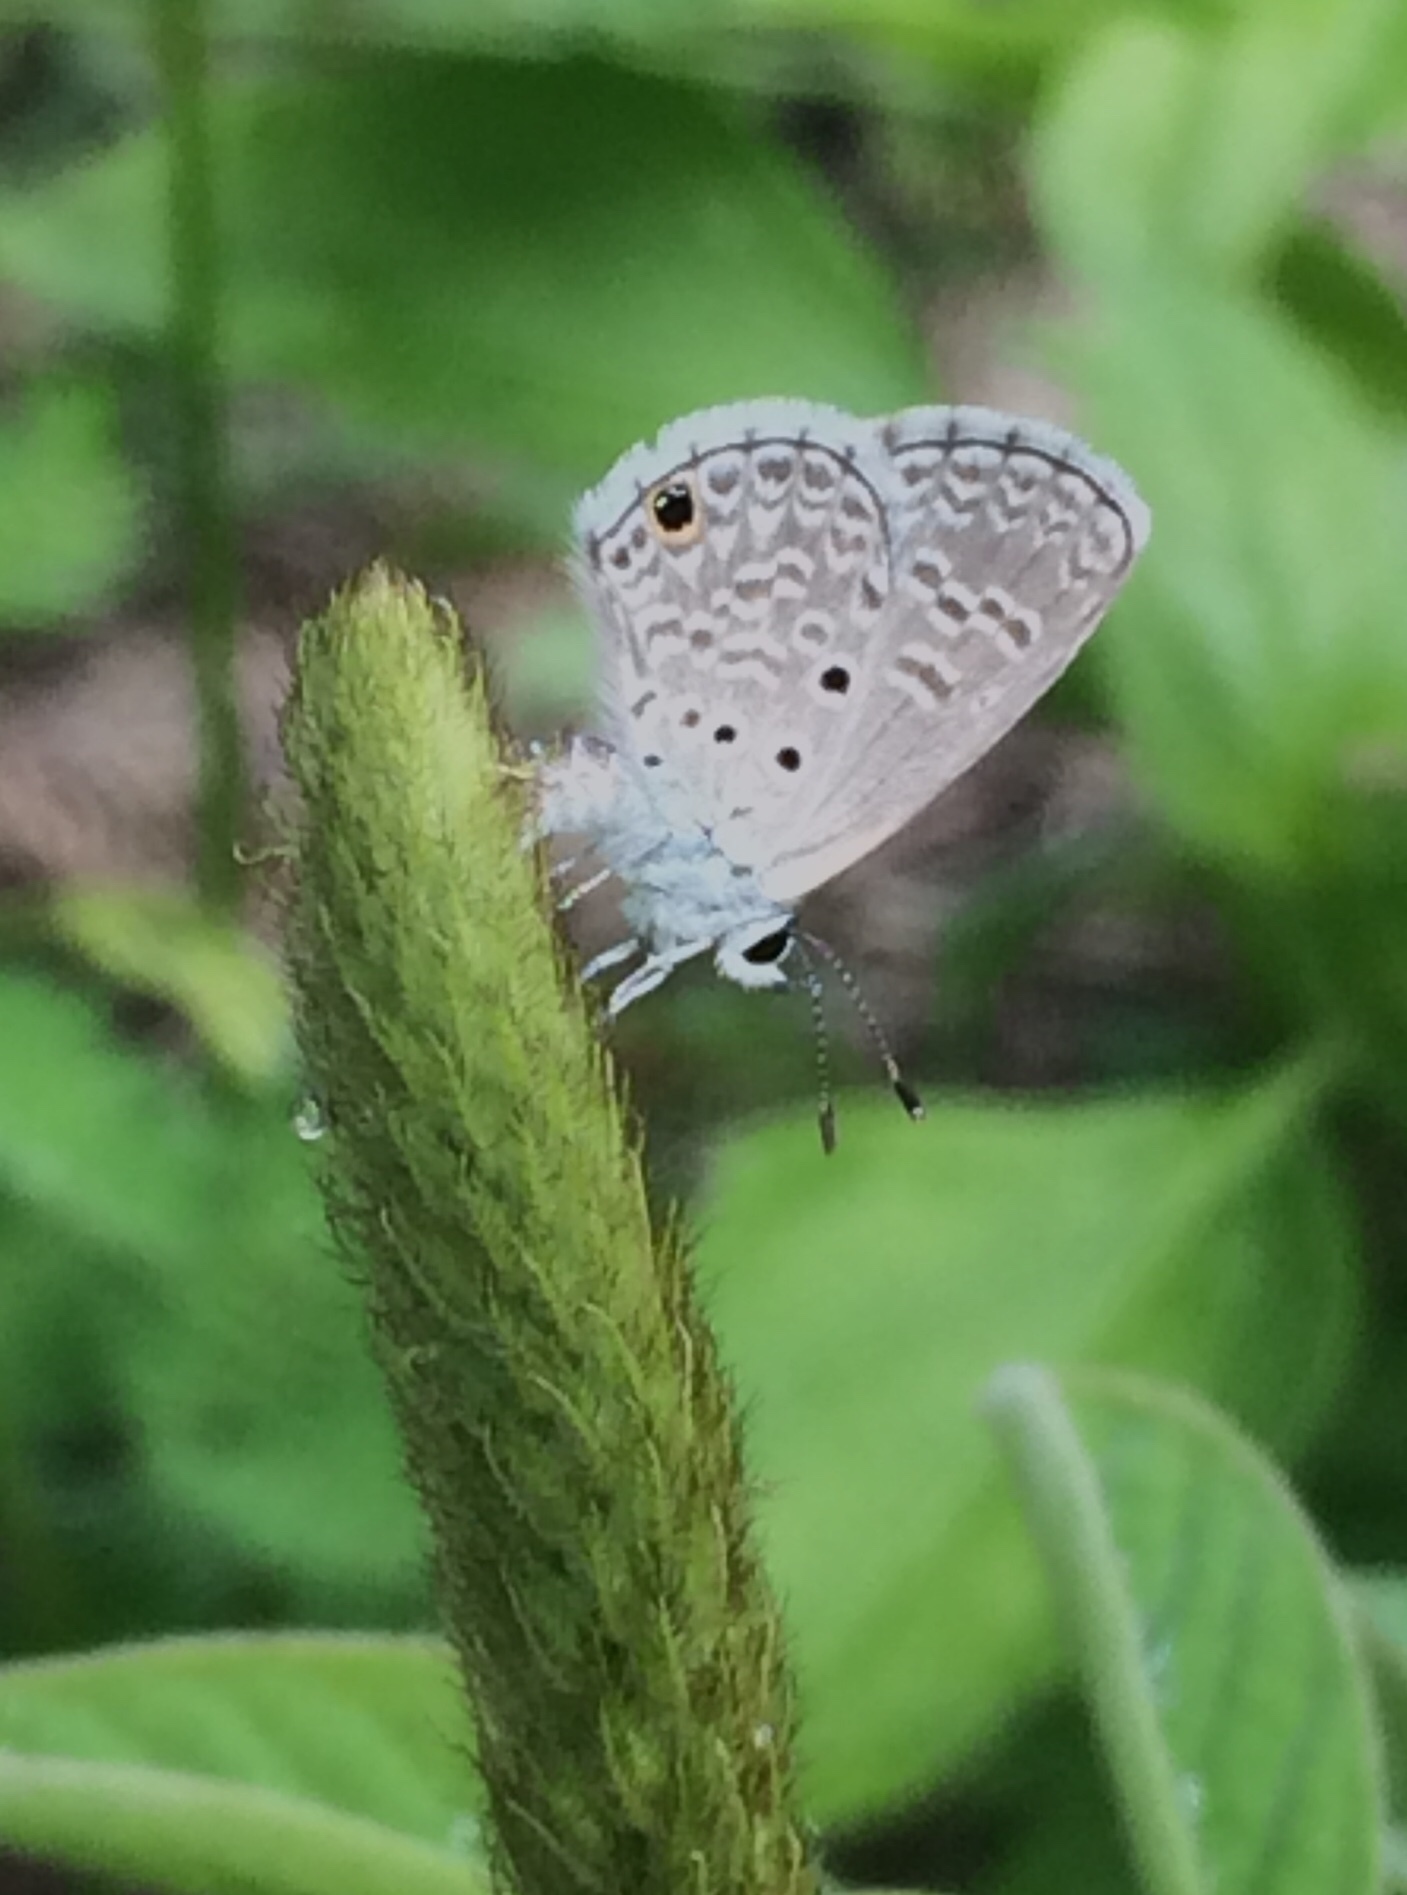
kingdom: Animalia
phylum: Arthropoda
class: Insecta
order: Lepidoptera
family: Lycaenidae
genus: Hemiargus
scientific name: Hemiargus hanno
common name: Common blue
